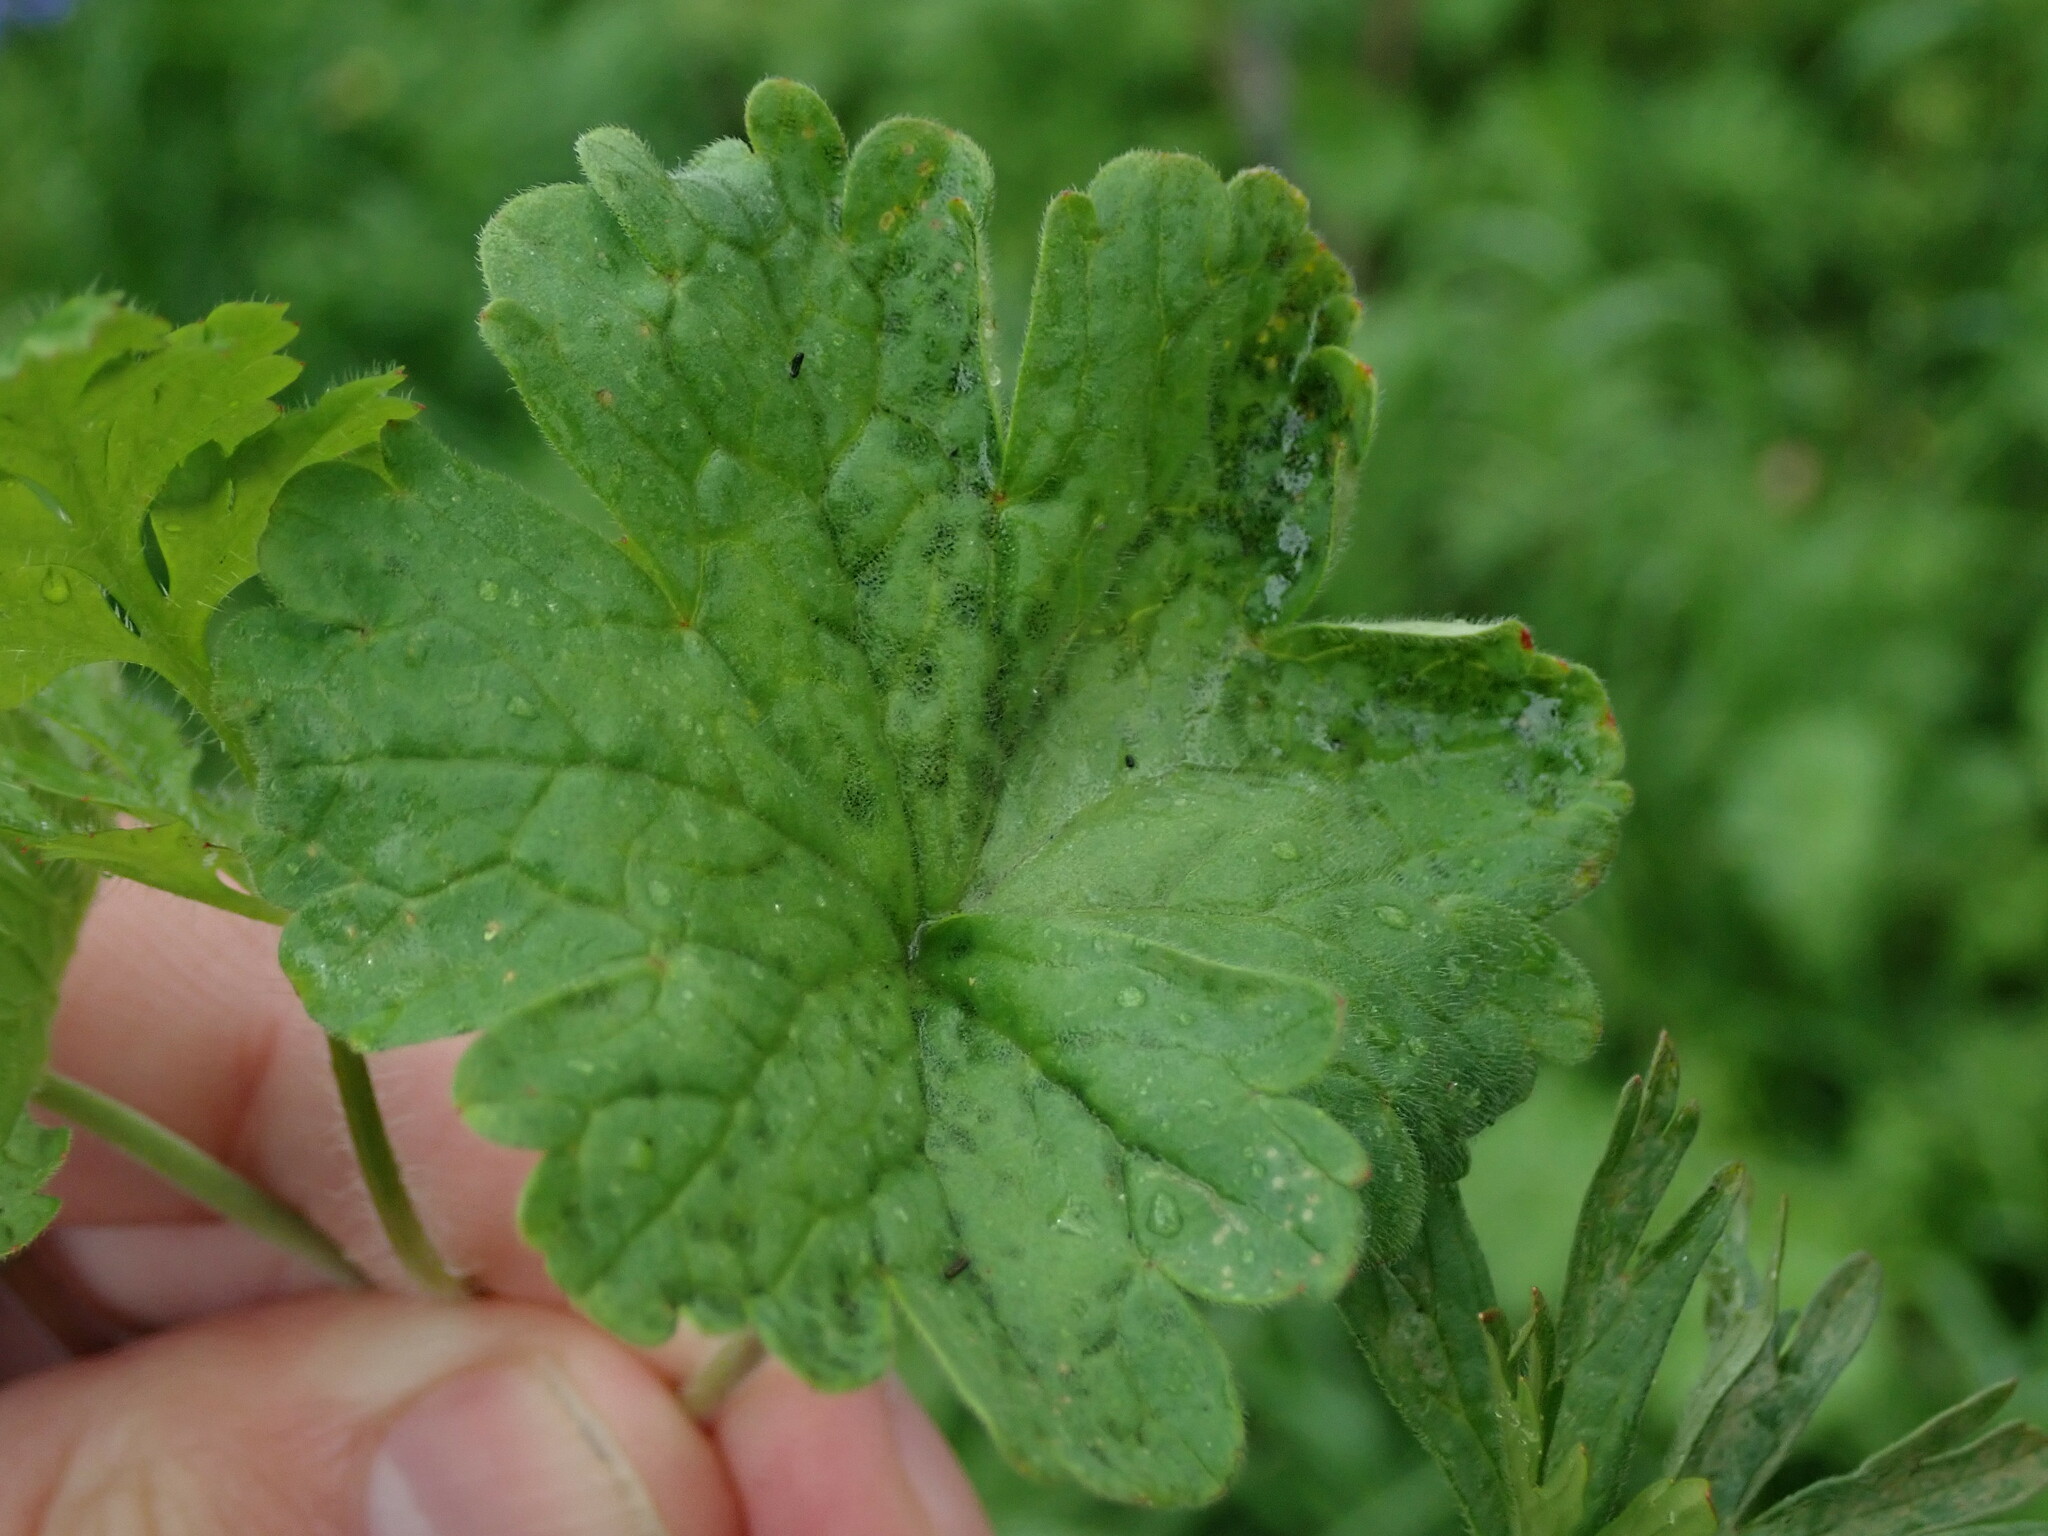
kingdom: Plantae
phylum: Tracheophyta
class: Magnoliopsida
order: Geraniales
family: Geraniaceae
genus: Geranium
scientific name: Geranium rotundifolium
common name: Round-leaved crane's-bill
